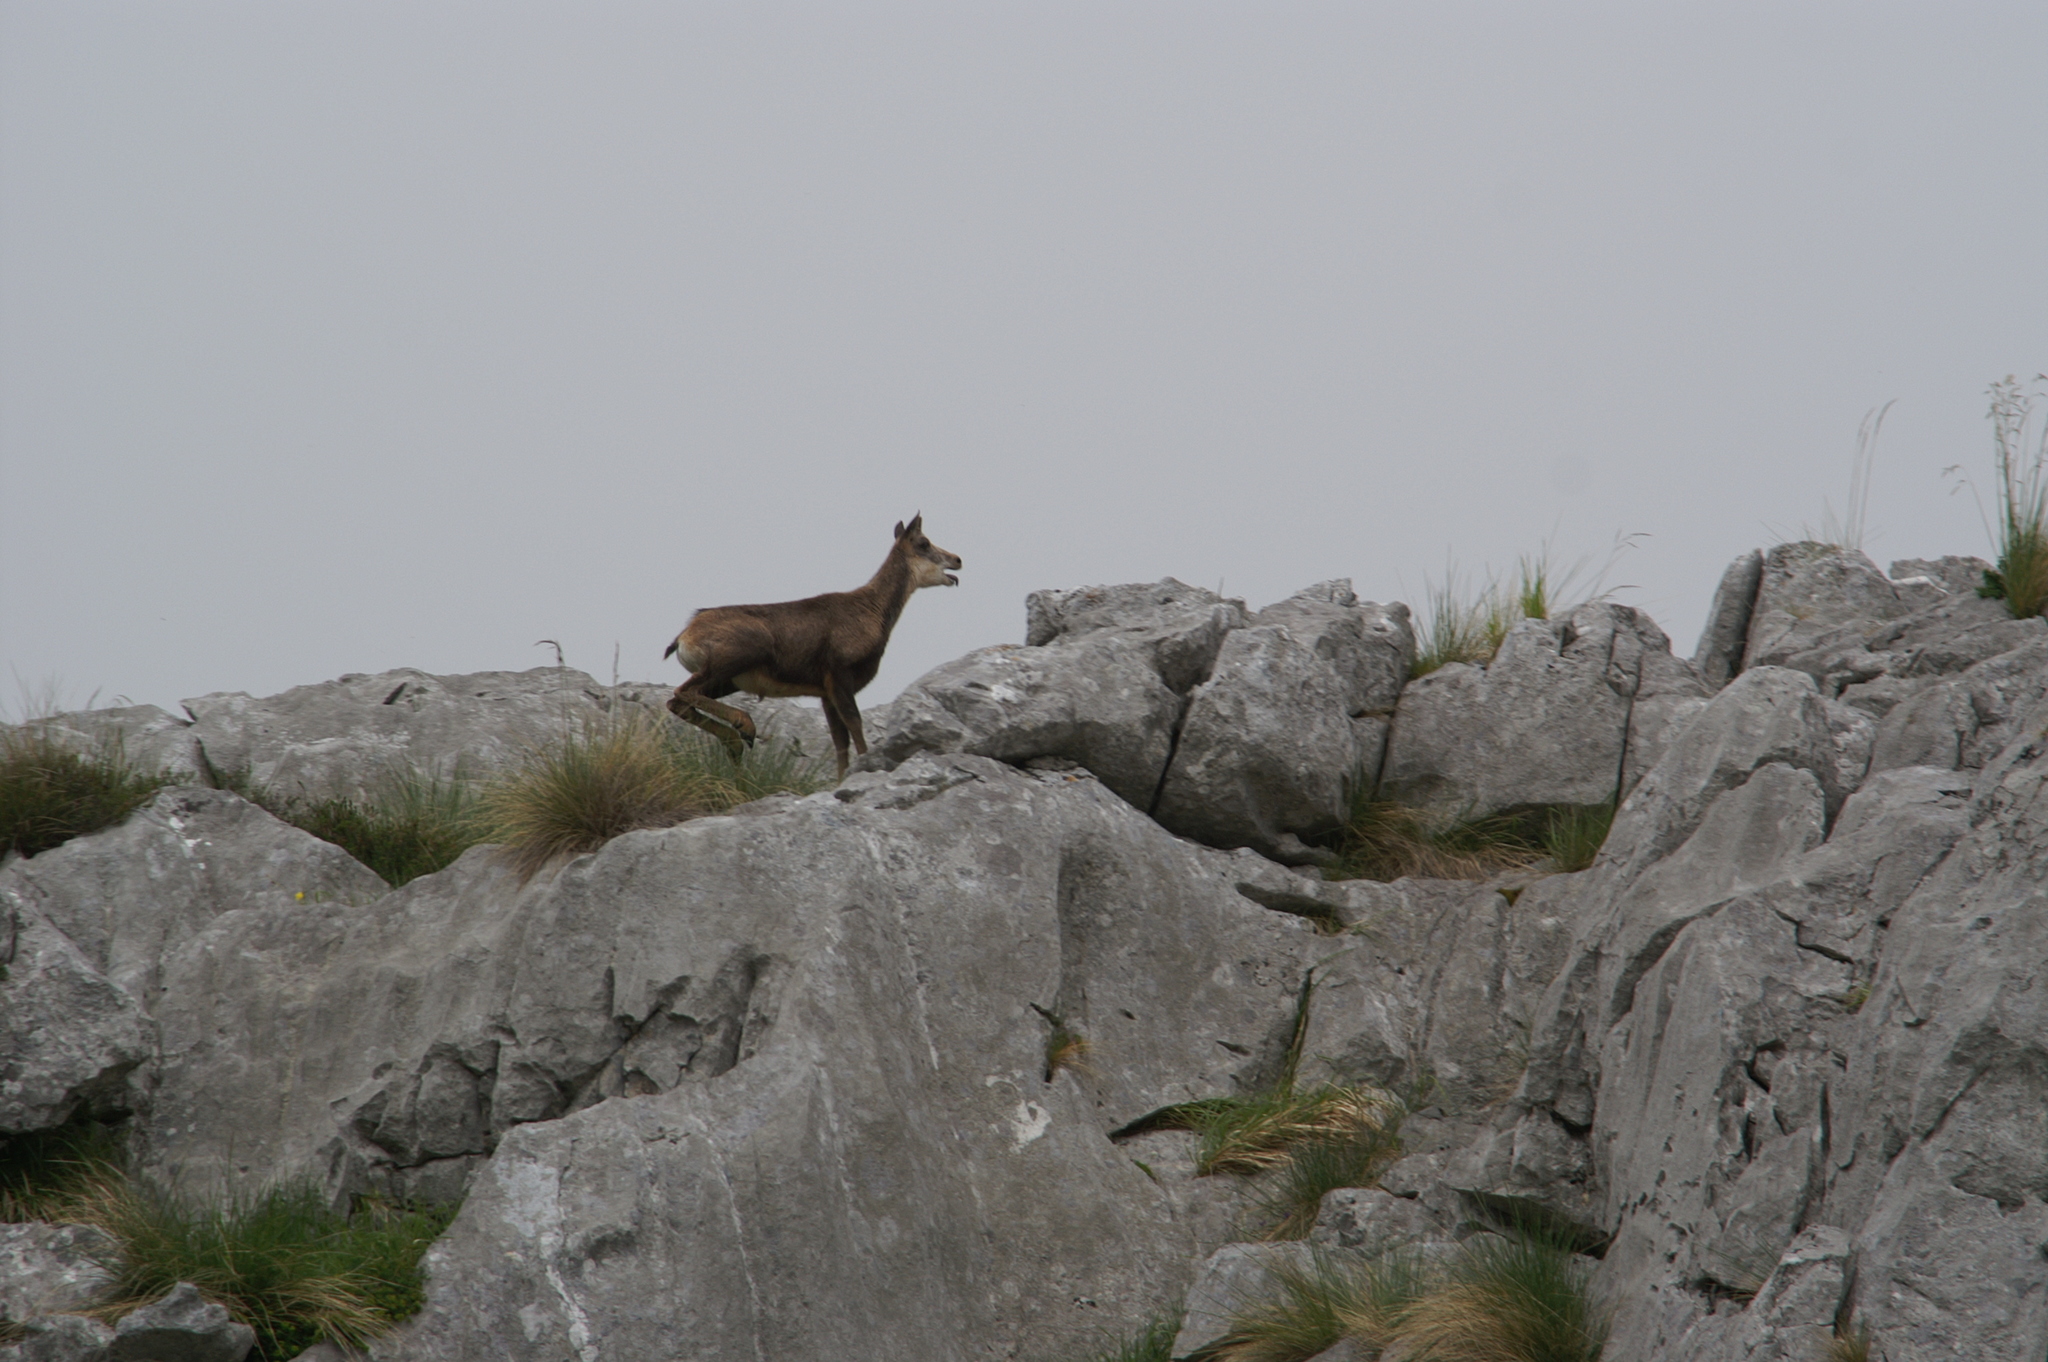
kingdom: Animalia
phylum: Chordata
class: Mammalia
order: Artiodactyla
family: Bovidae
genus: Rupicapra
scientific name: Rupicapra pyrenaica
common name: Pyrenean chamois
